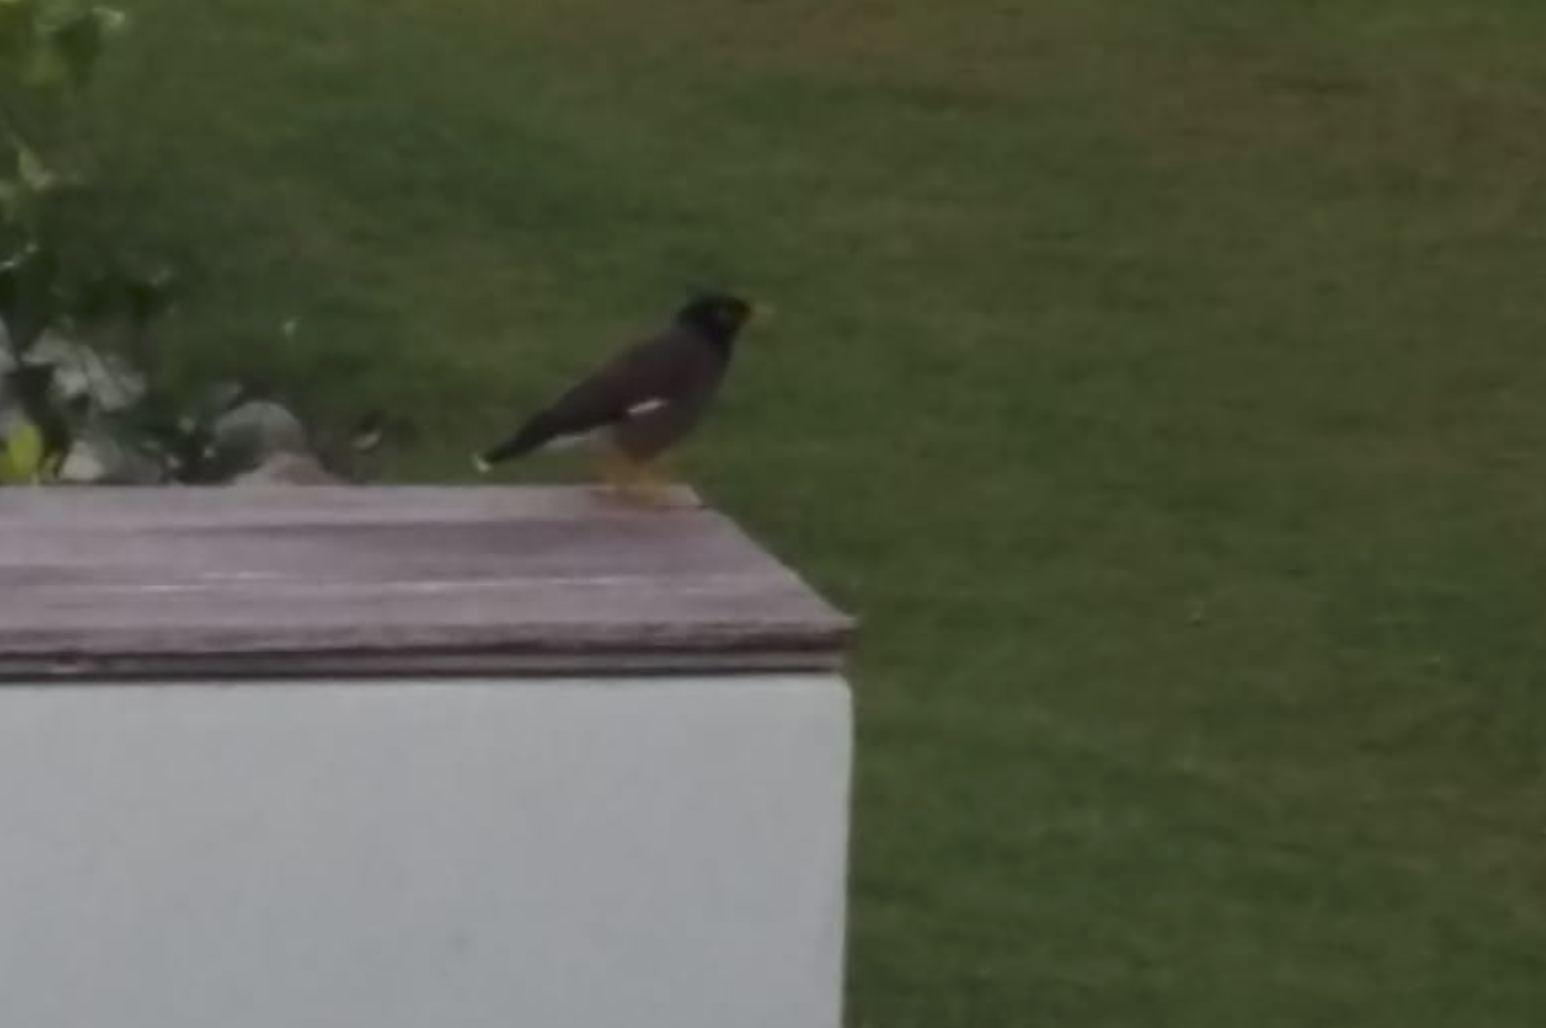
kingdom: Animalia
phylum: Chordata
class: Aves
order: Passeriformes
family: Sturnidae
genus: Acridotheres
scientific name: Acridotheres tristis
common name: Common myna
